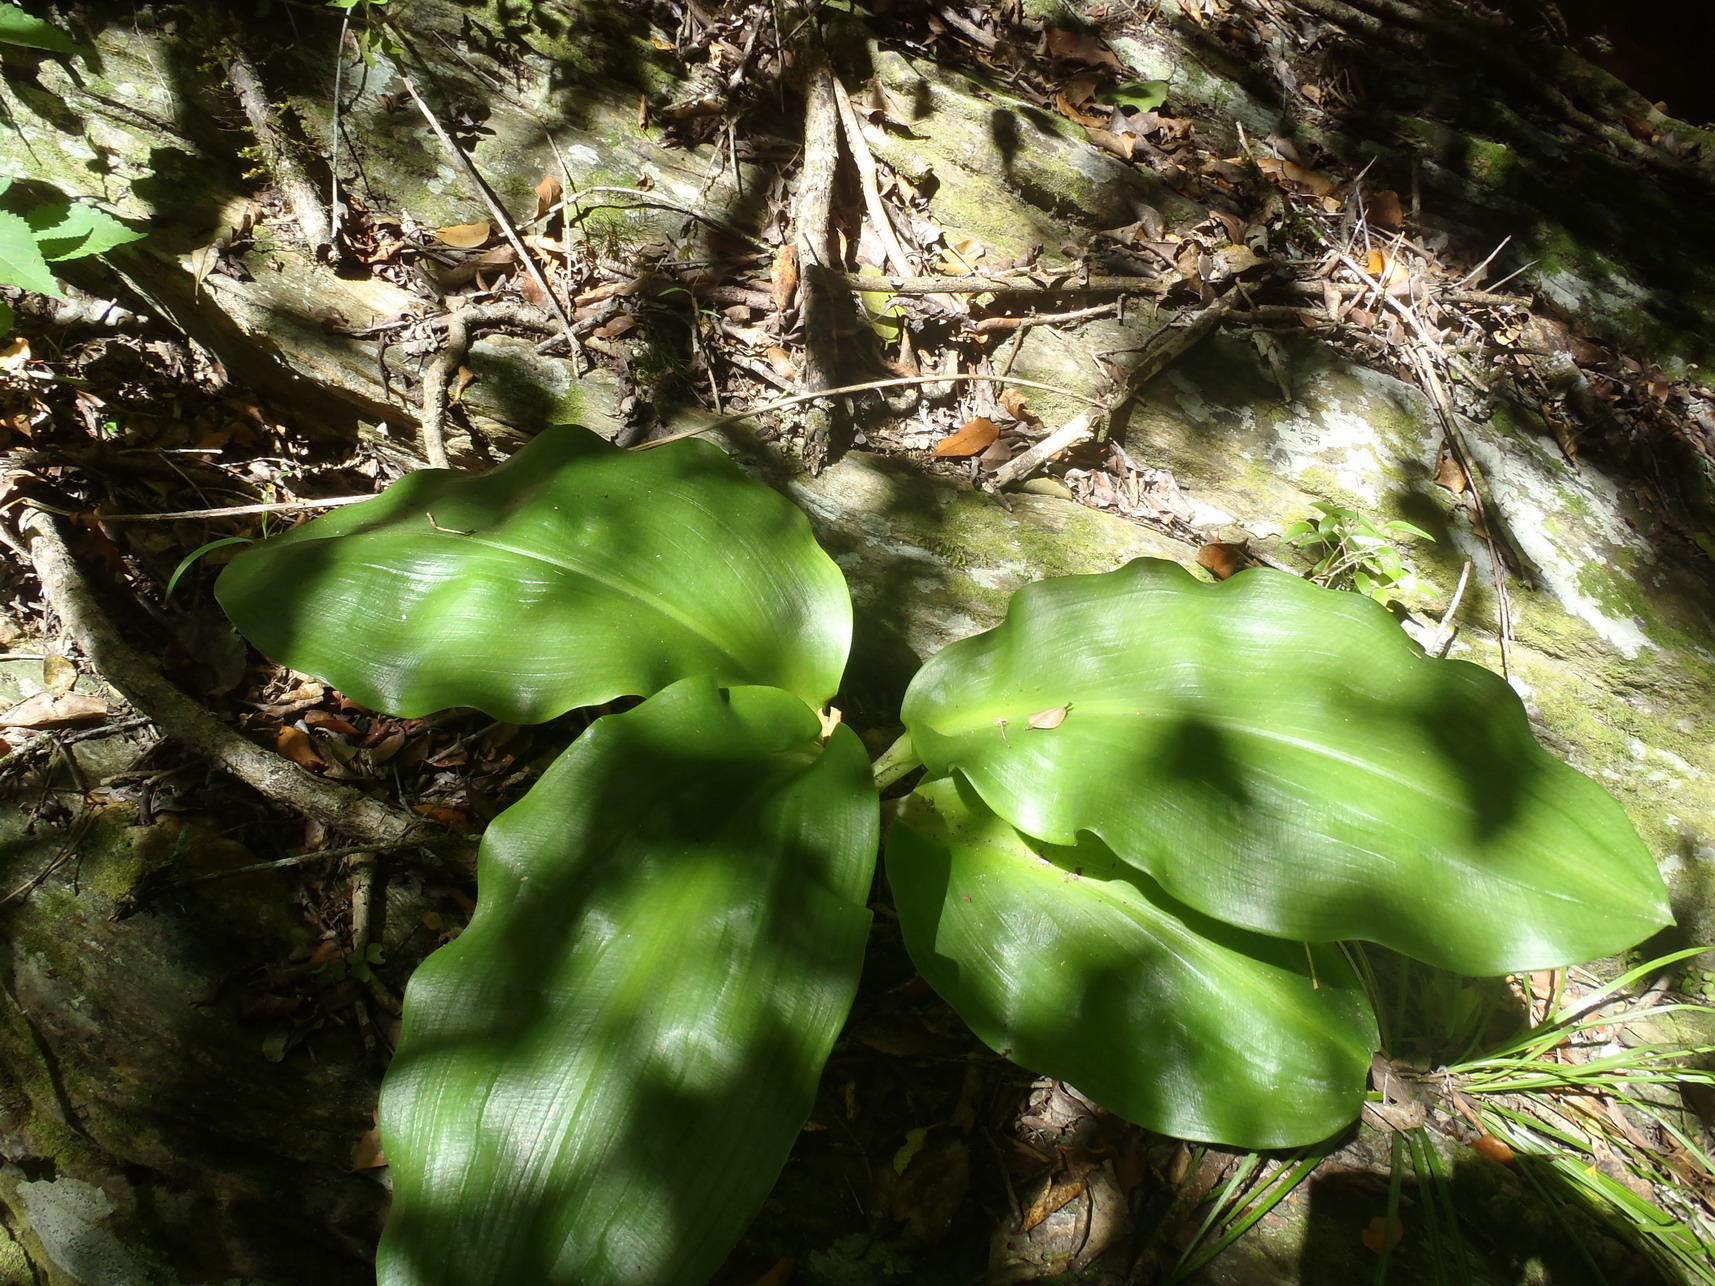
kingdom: Plantae
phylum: Tracheophyta
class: Liliopsida
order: Asparagales
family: Amaryllidaceae
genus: Scadoxus
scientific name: Scadoxus puniceus
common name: Royal-paintbrush
